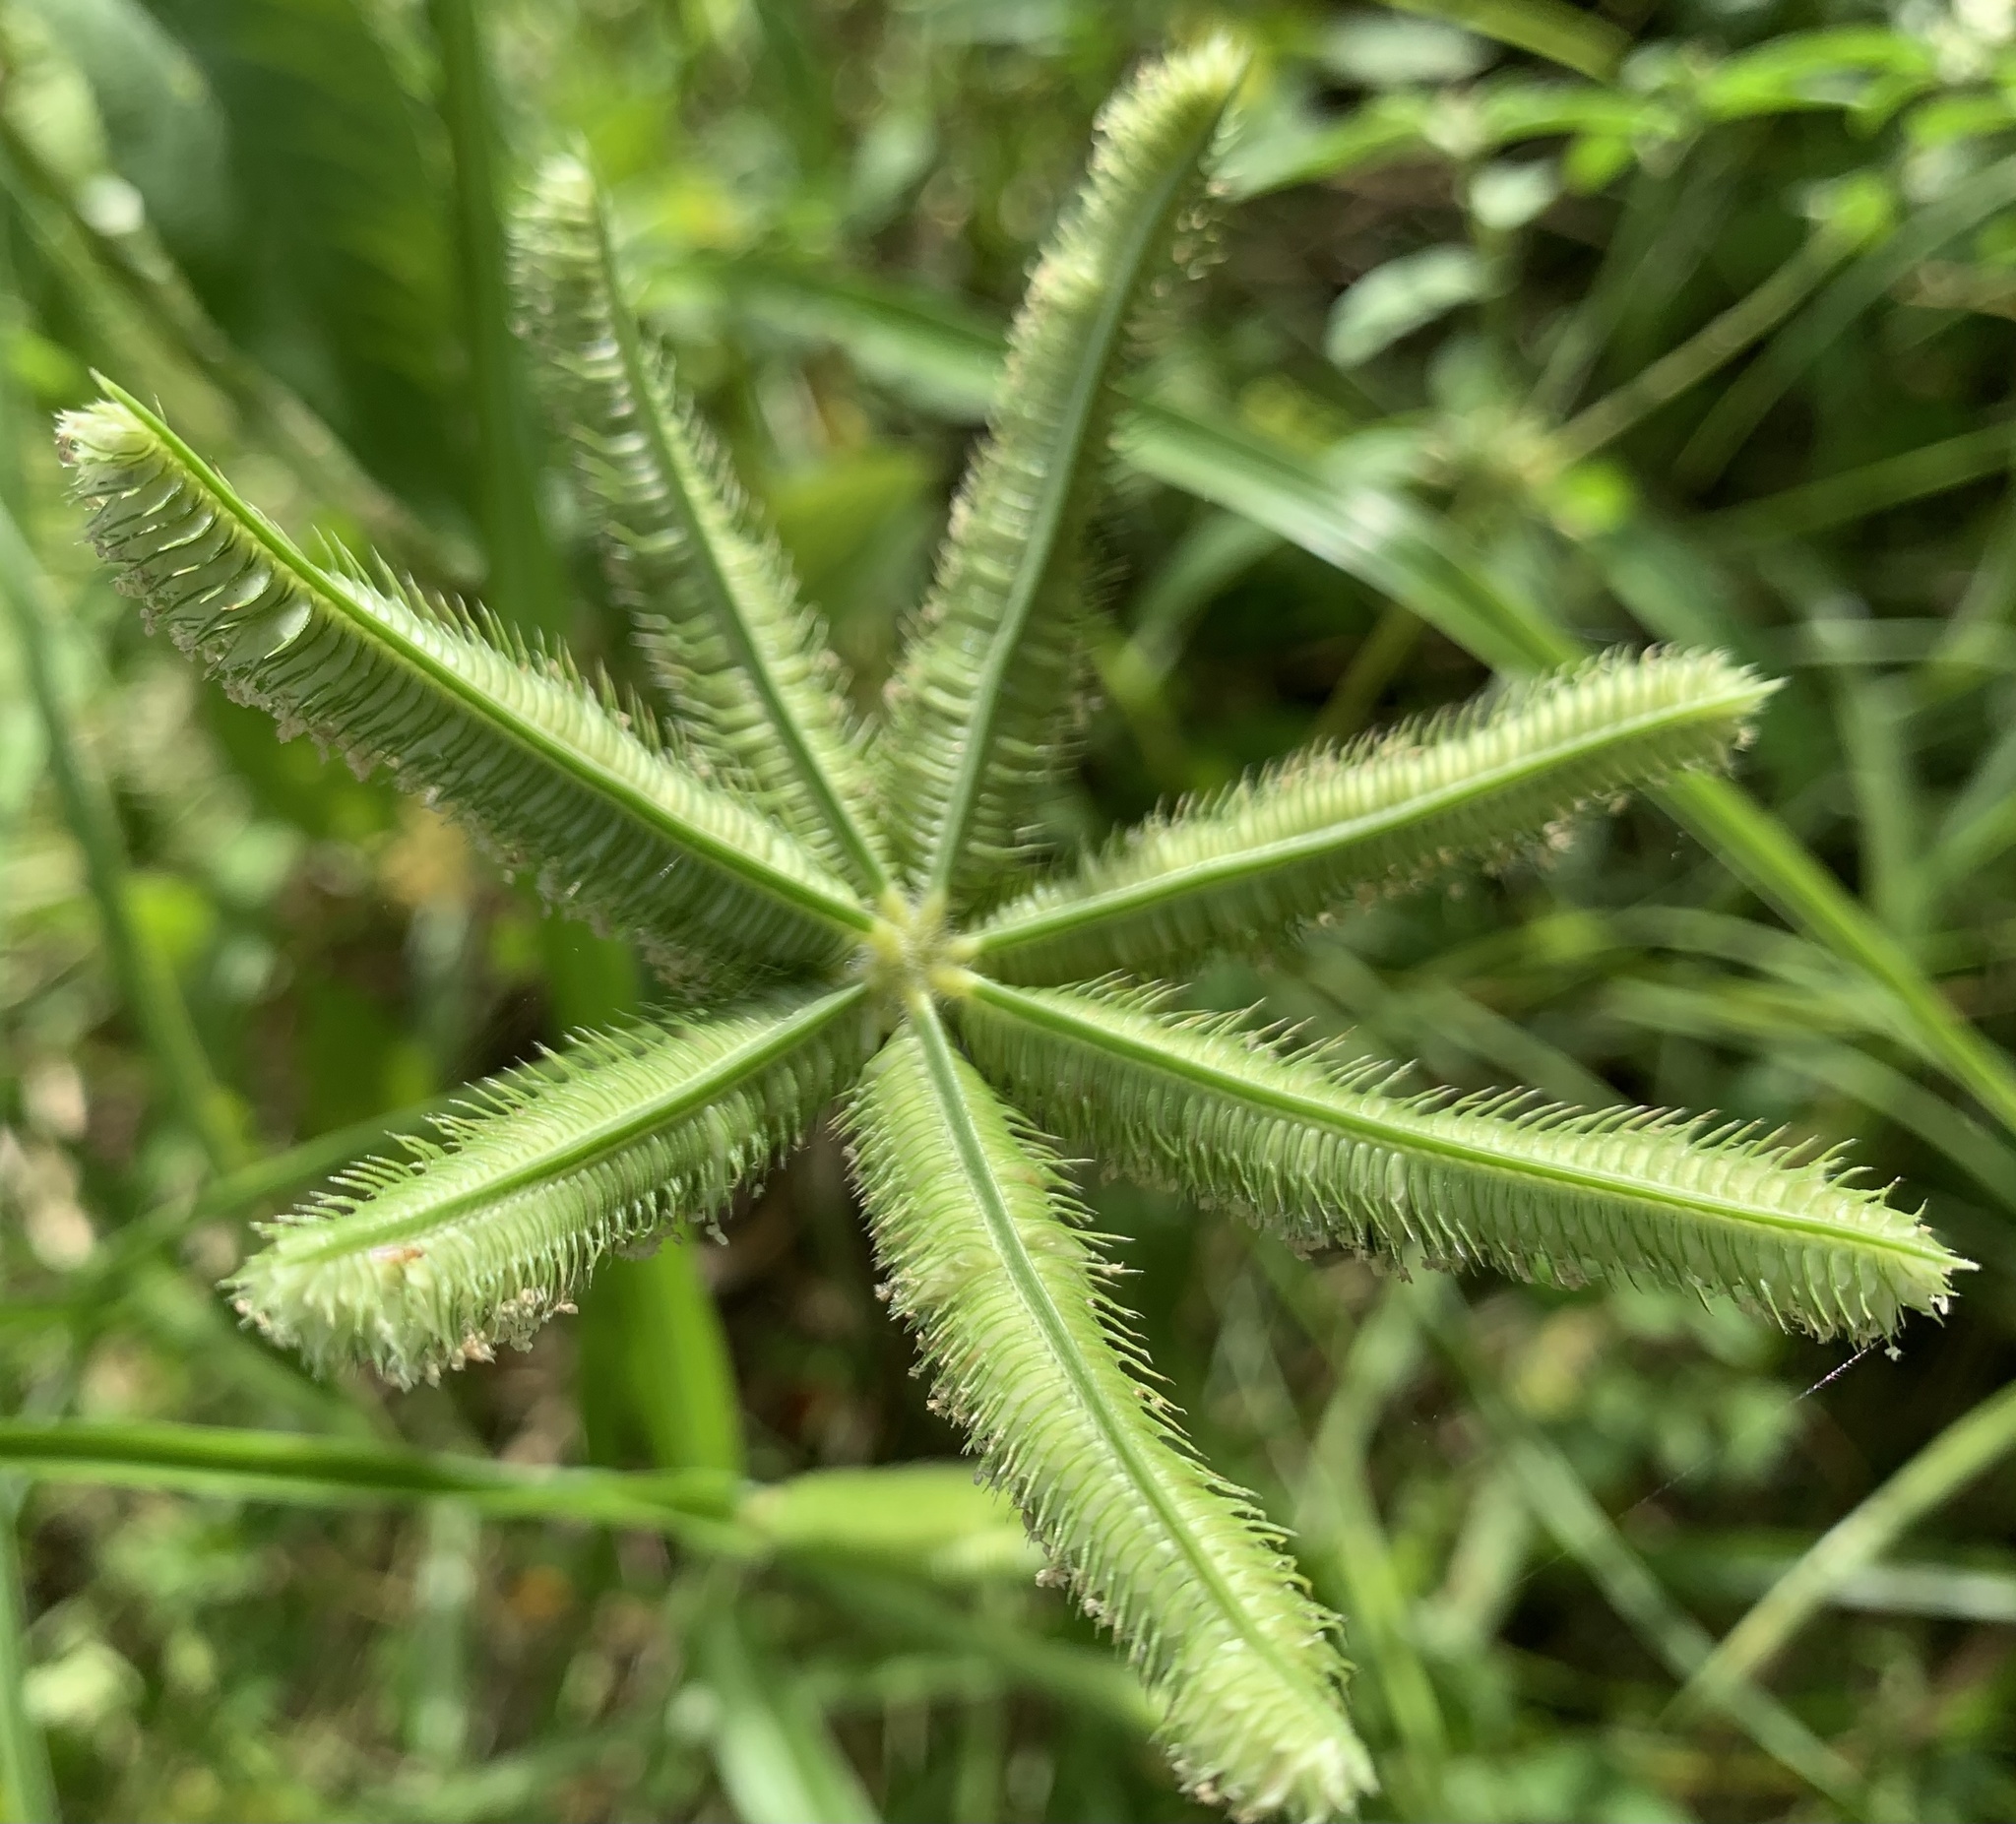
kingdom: Plantae
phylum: Tracheophyta
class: Liliopsida
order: Poales
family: Poaceae
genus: Dactyloctenium
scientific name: Dactyloctenium aegyptium
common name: Egyptian grass
